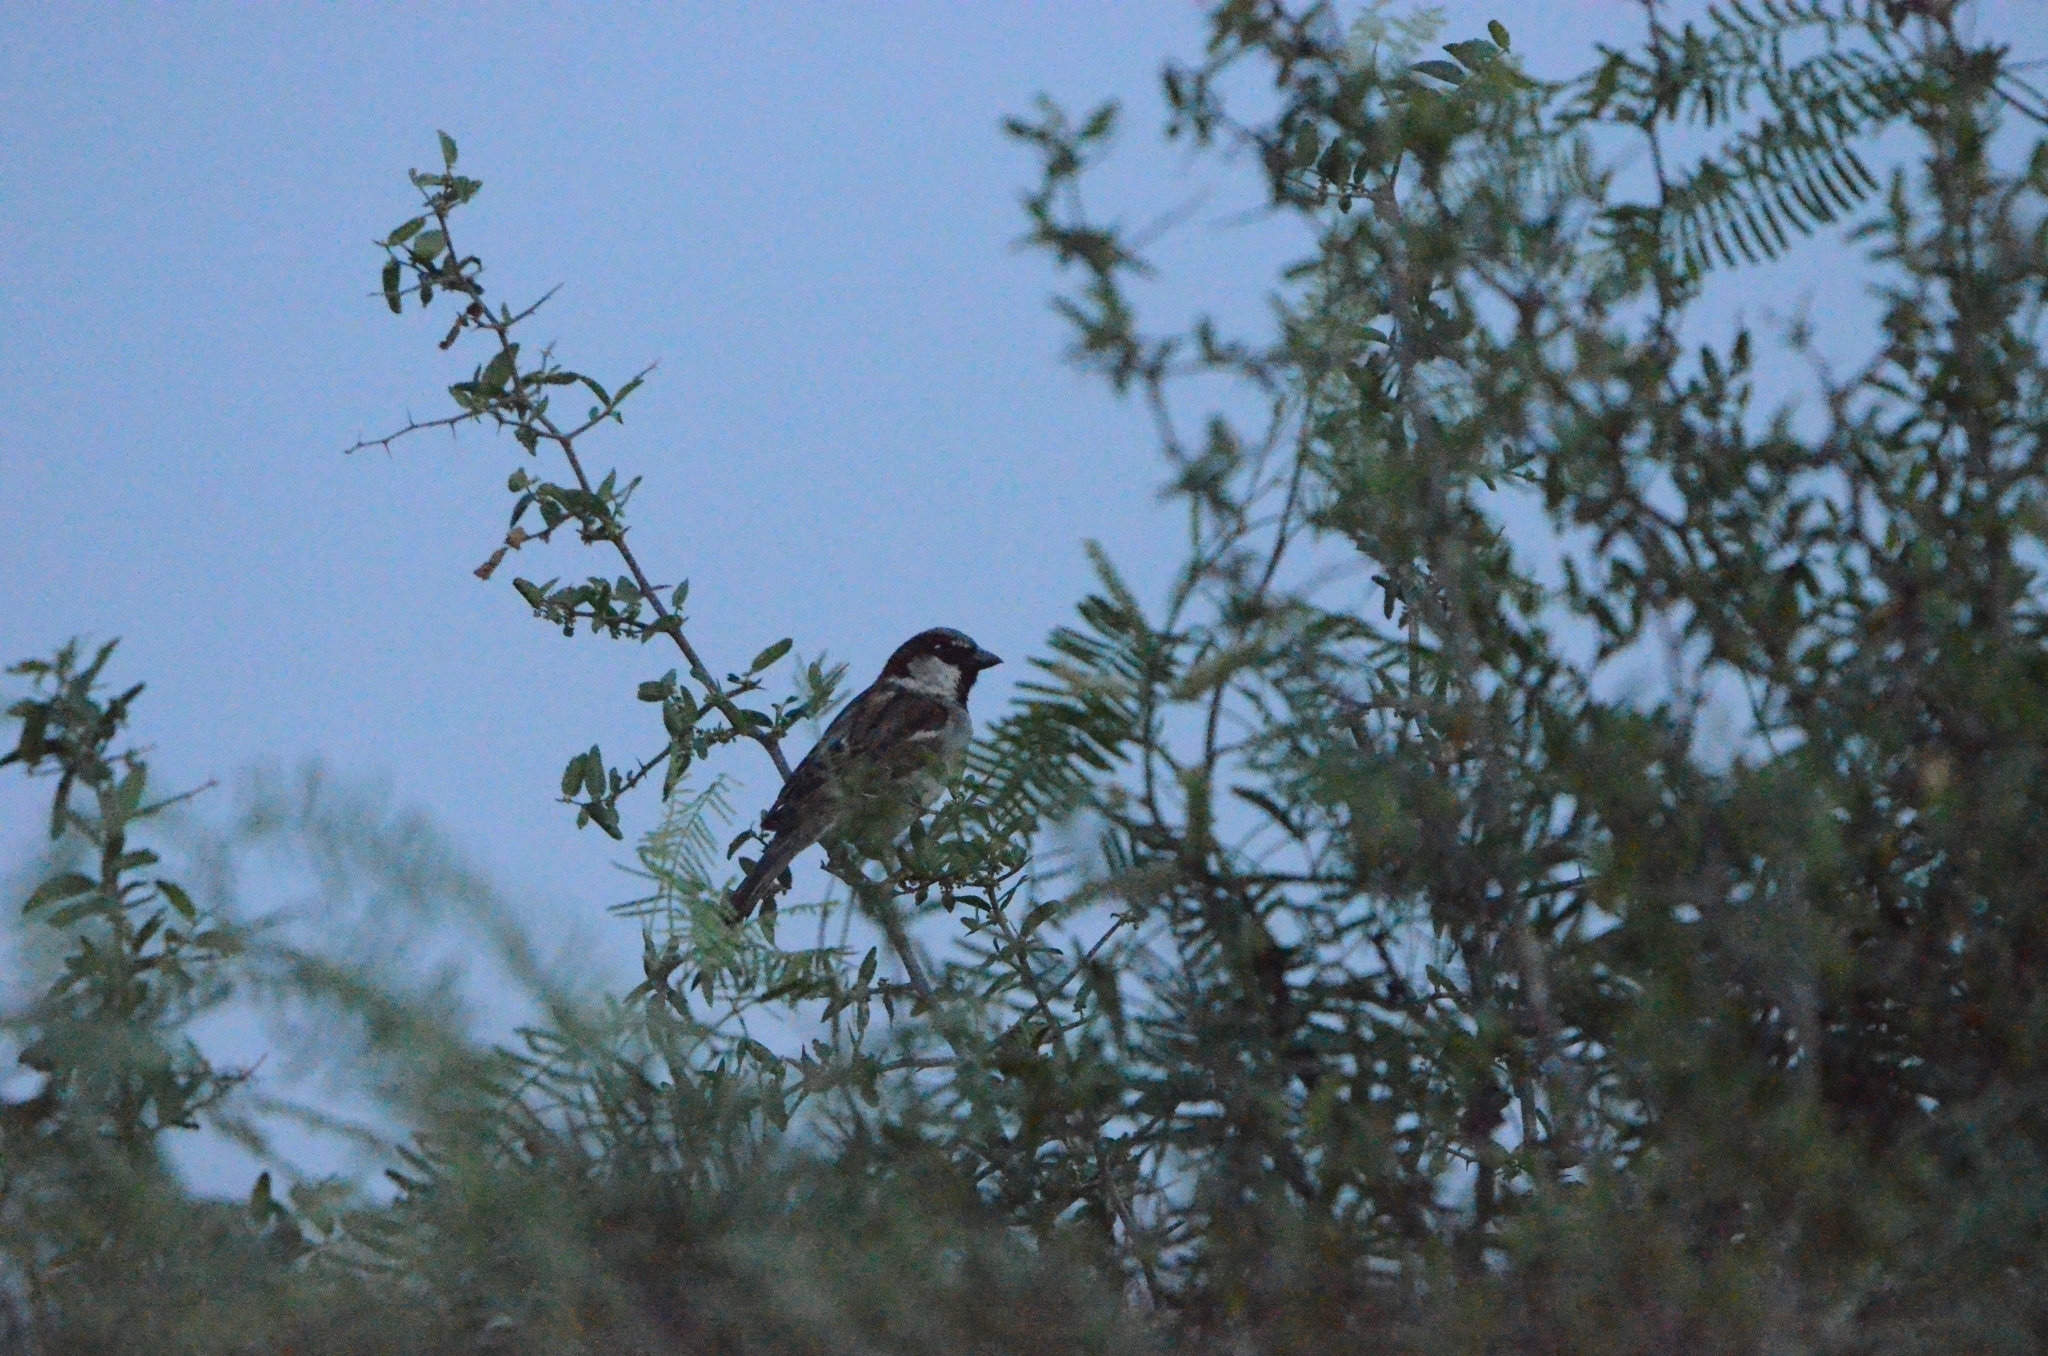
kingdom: Animalia
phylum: Chordata
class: Aves
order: Passeriformes
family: Passeridae
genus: Passer
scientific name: Passer domesticus
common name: House sparrow
